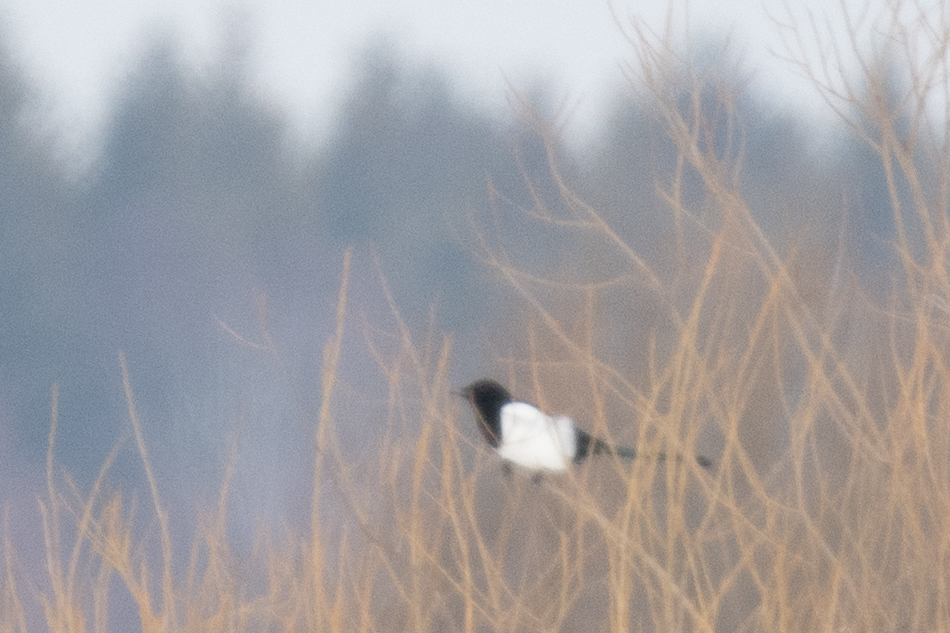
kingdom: Animalia
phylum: Chordata
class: Aves
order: Passeriformes
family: Corvidae
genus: Pica
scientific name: Pica pica
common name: Eurasian magpie
